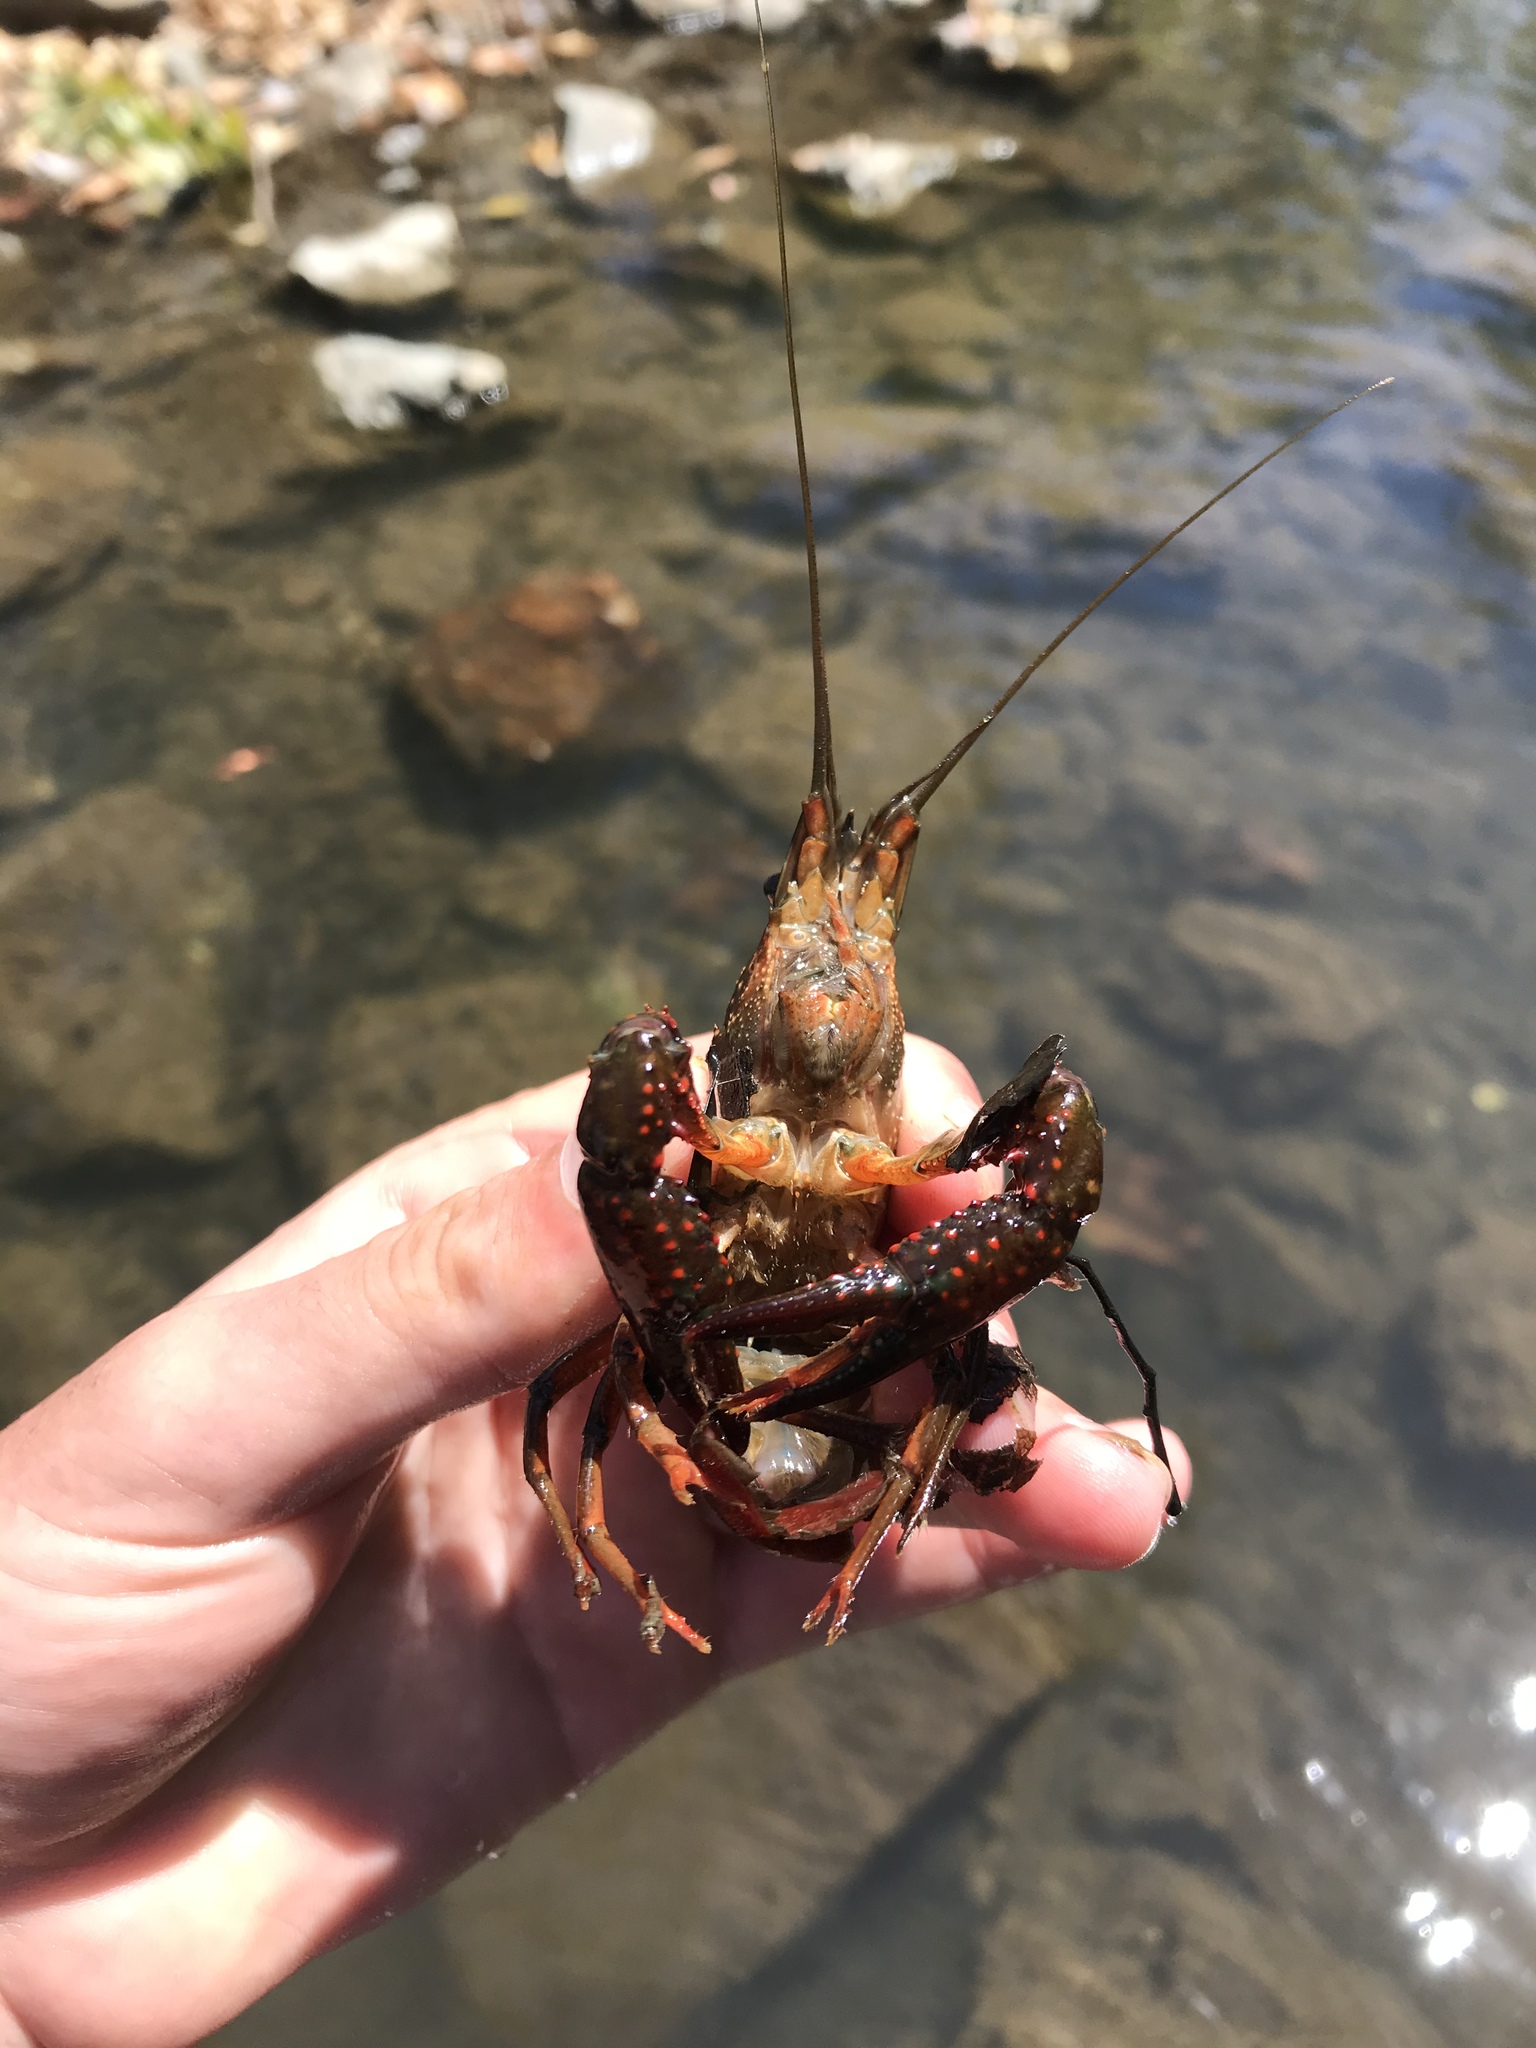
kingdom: Animalia
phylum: Arthropoda
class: Malacostraca
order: Decapoda
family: Cambaridae
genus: Procambarus
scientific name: Procambarus clarkii
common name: Red swamp crayfish
